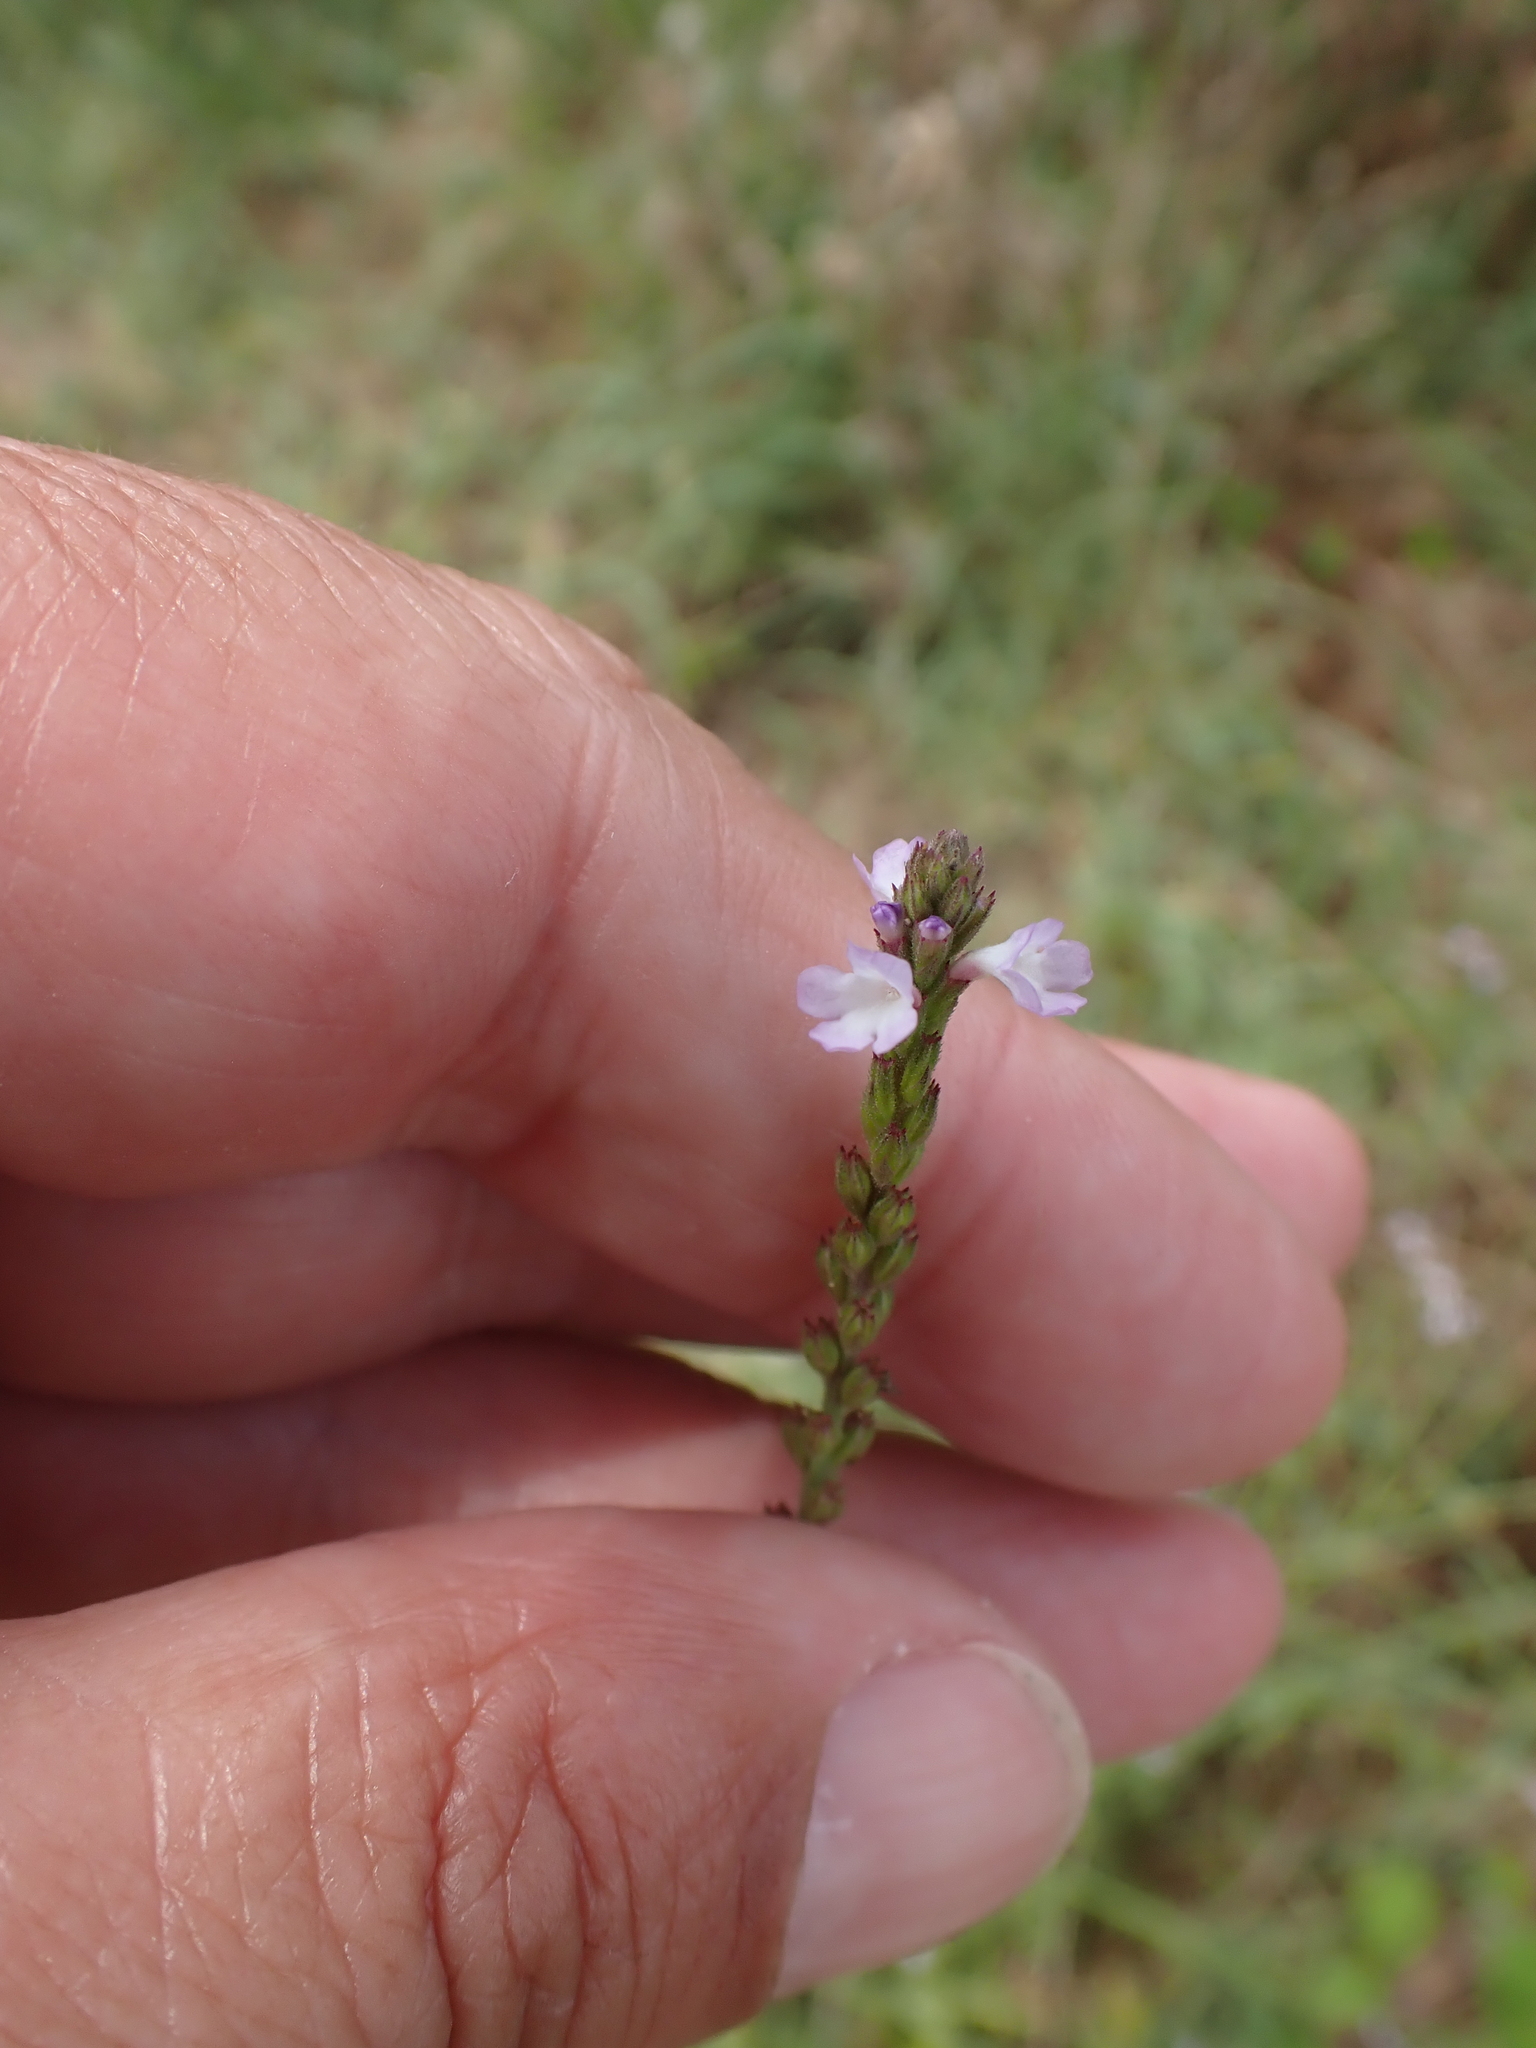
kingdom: Plantae
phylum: Tracheophyta
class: Magnoliopsida
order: Lamiales
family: Verbenaceae
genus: Verbena
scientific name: Verbena officinalis
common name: Vervain
